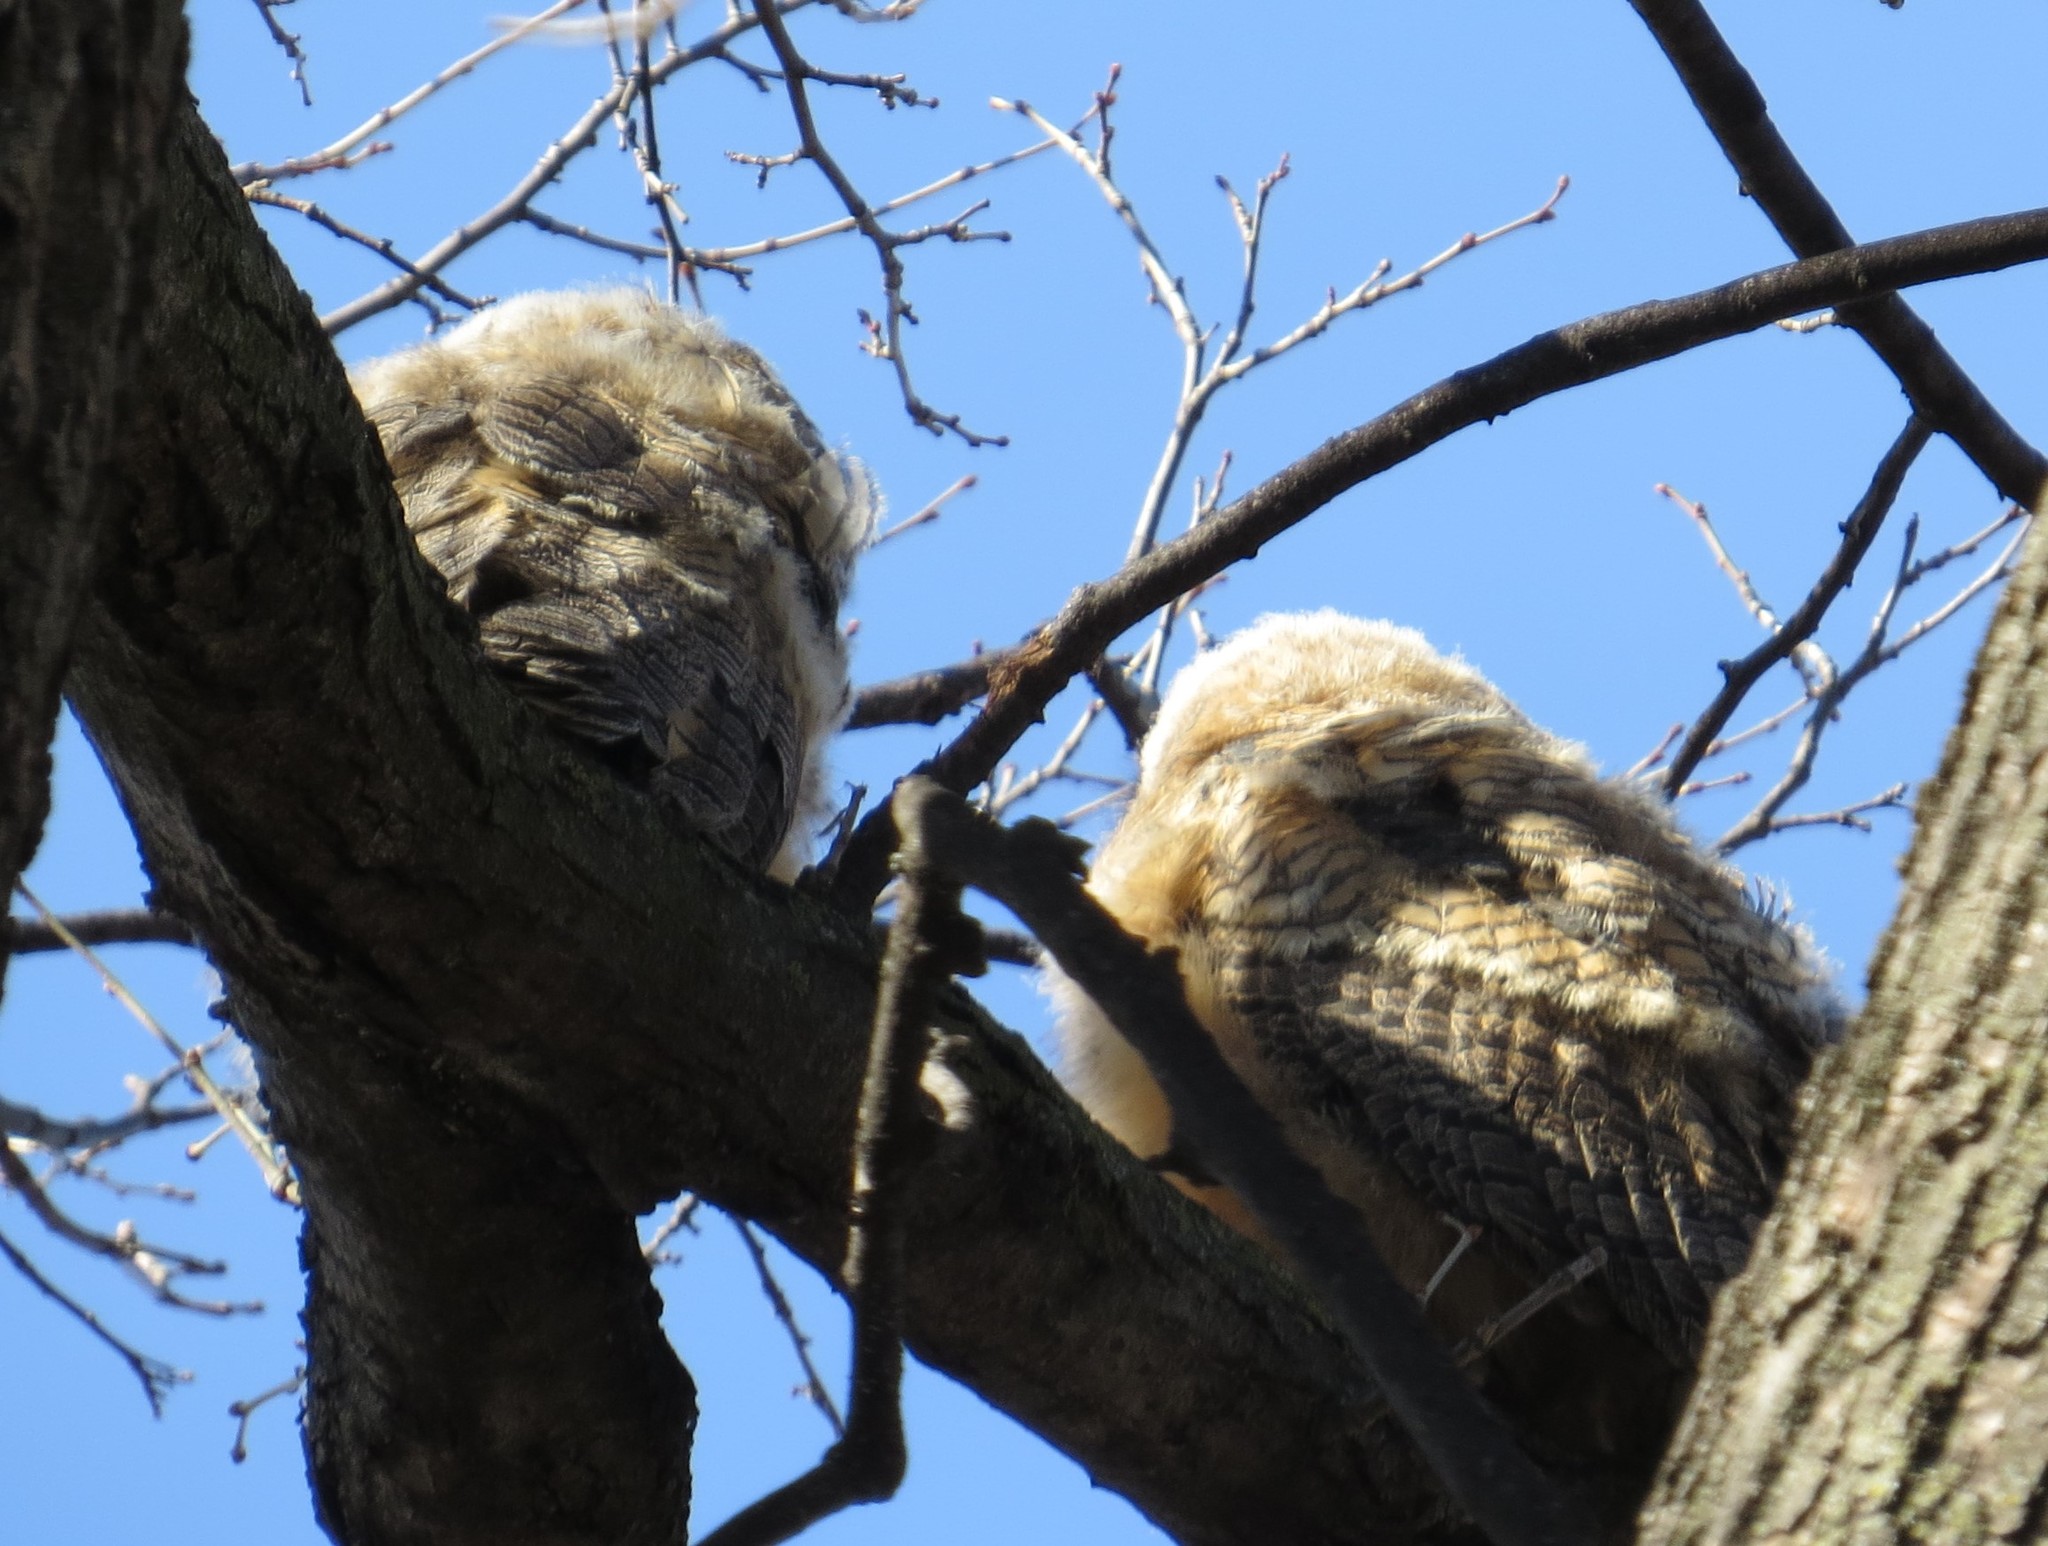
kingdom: Animalia
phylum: Chordata
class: Aves
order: Strigiformes
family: Strigidae
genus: Bubo
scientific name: Bubo virginianus
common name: Great horned owl
